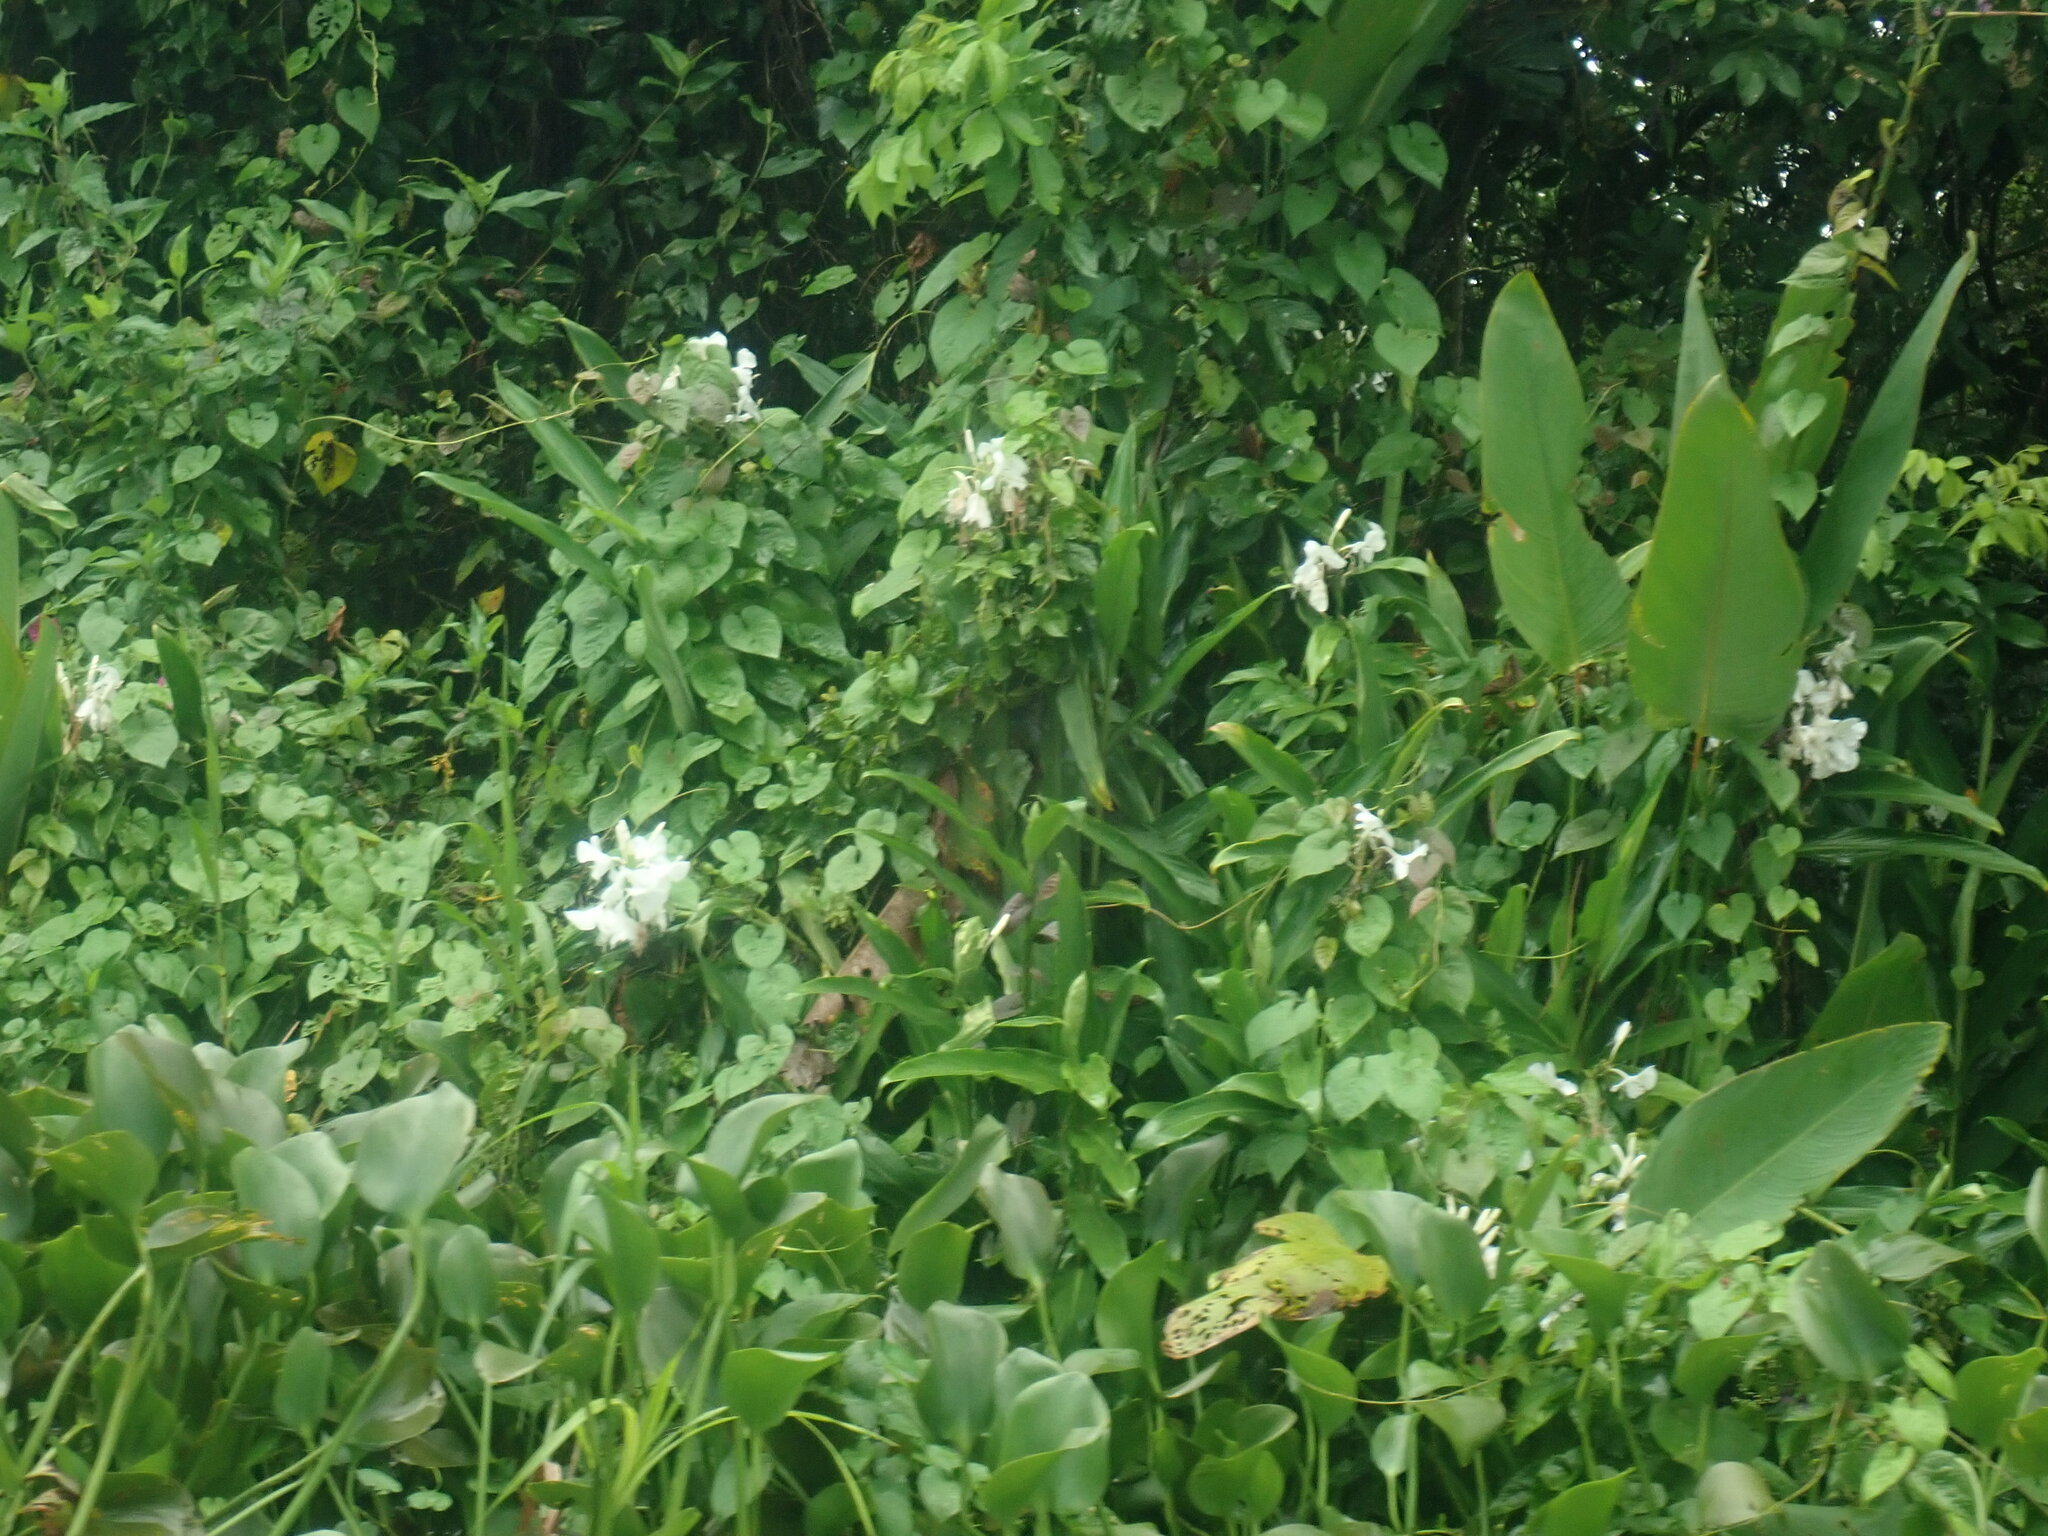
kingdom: Plantae
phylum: Tracheophyta
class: Liliopsida
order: Zingiberales
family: Zingiberaceae
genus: Hedychium
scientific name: Hedychium coronarium
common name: White garland-lily
